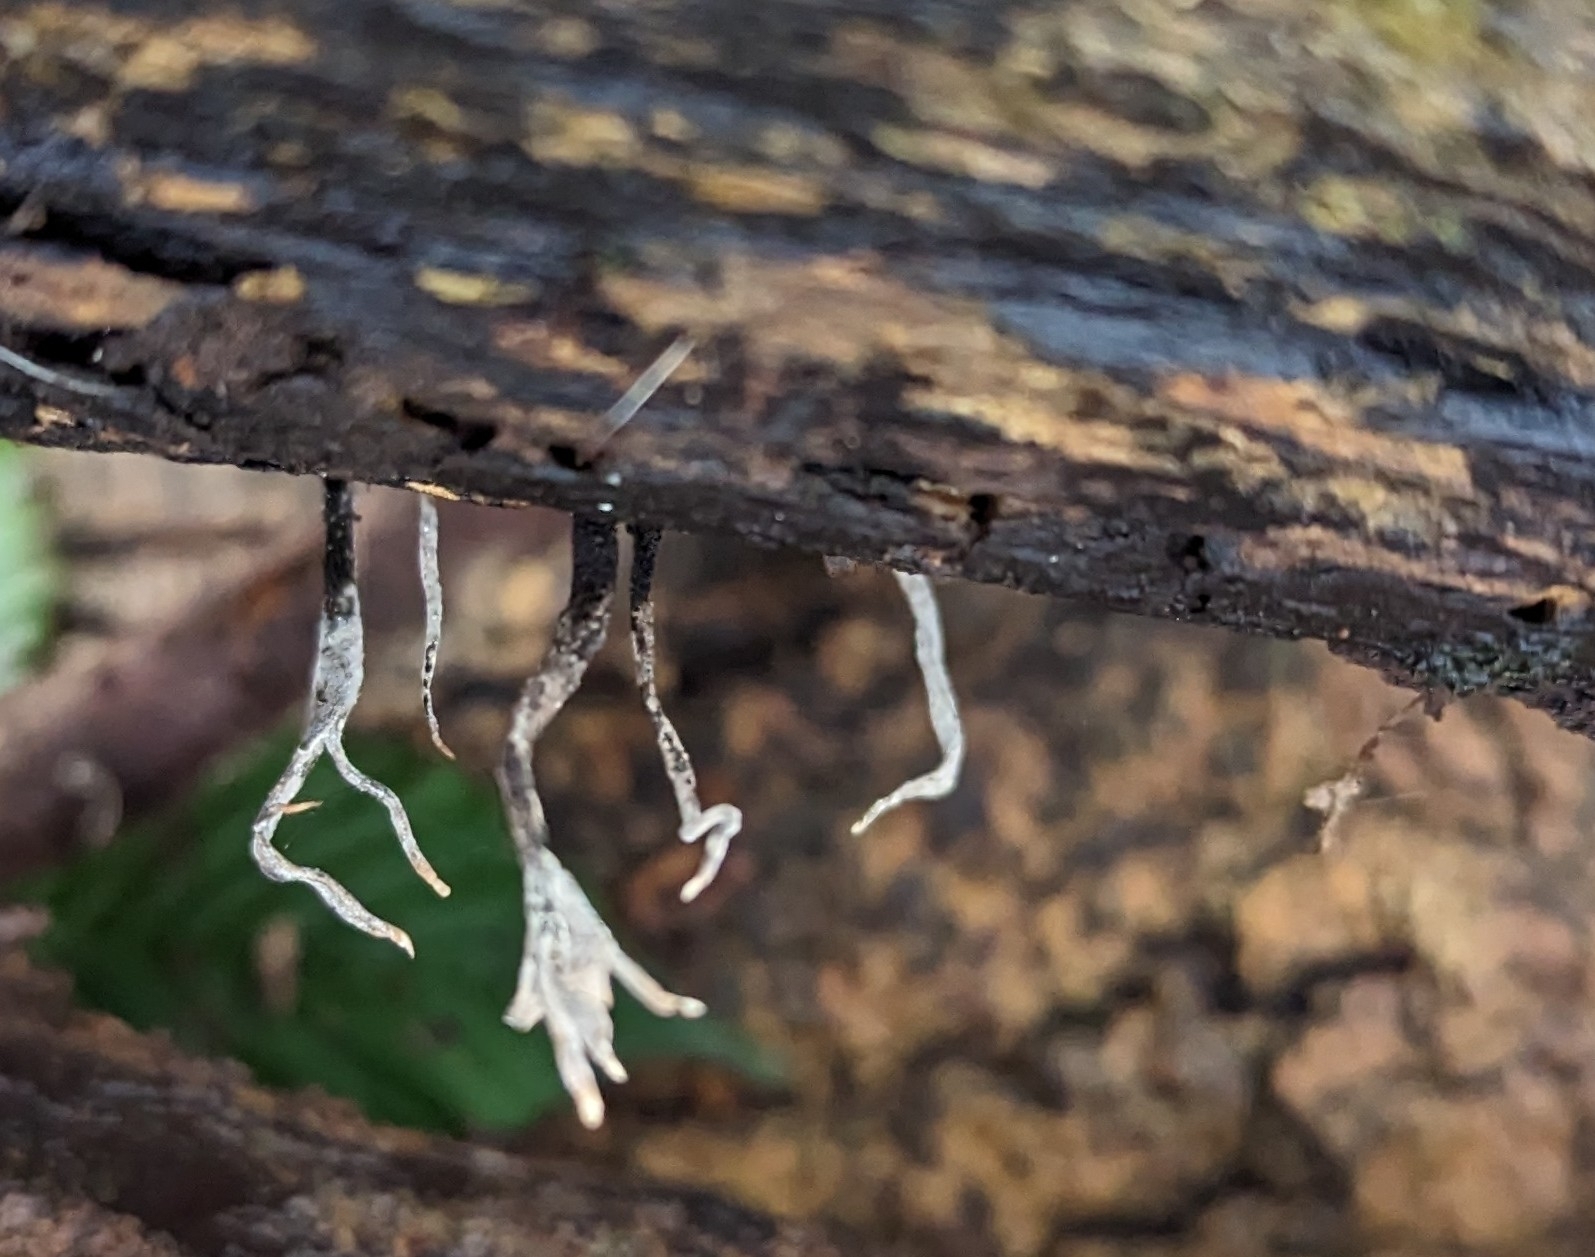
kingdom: Fungi
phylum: Ascomycota
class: Sordariomycetes
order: Xylariales
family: Xylariaceae
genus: Xylaria
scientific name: Xylaria hypoxylon
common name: Candle-snuff fungus
